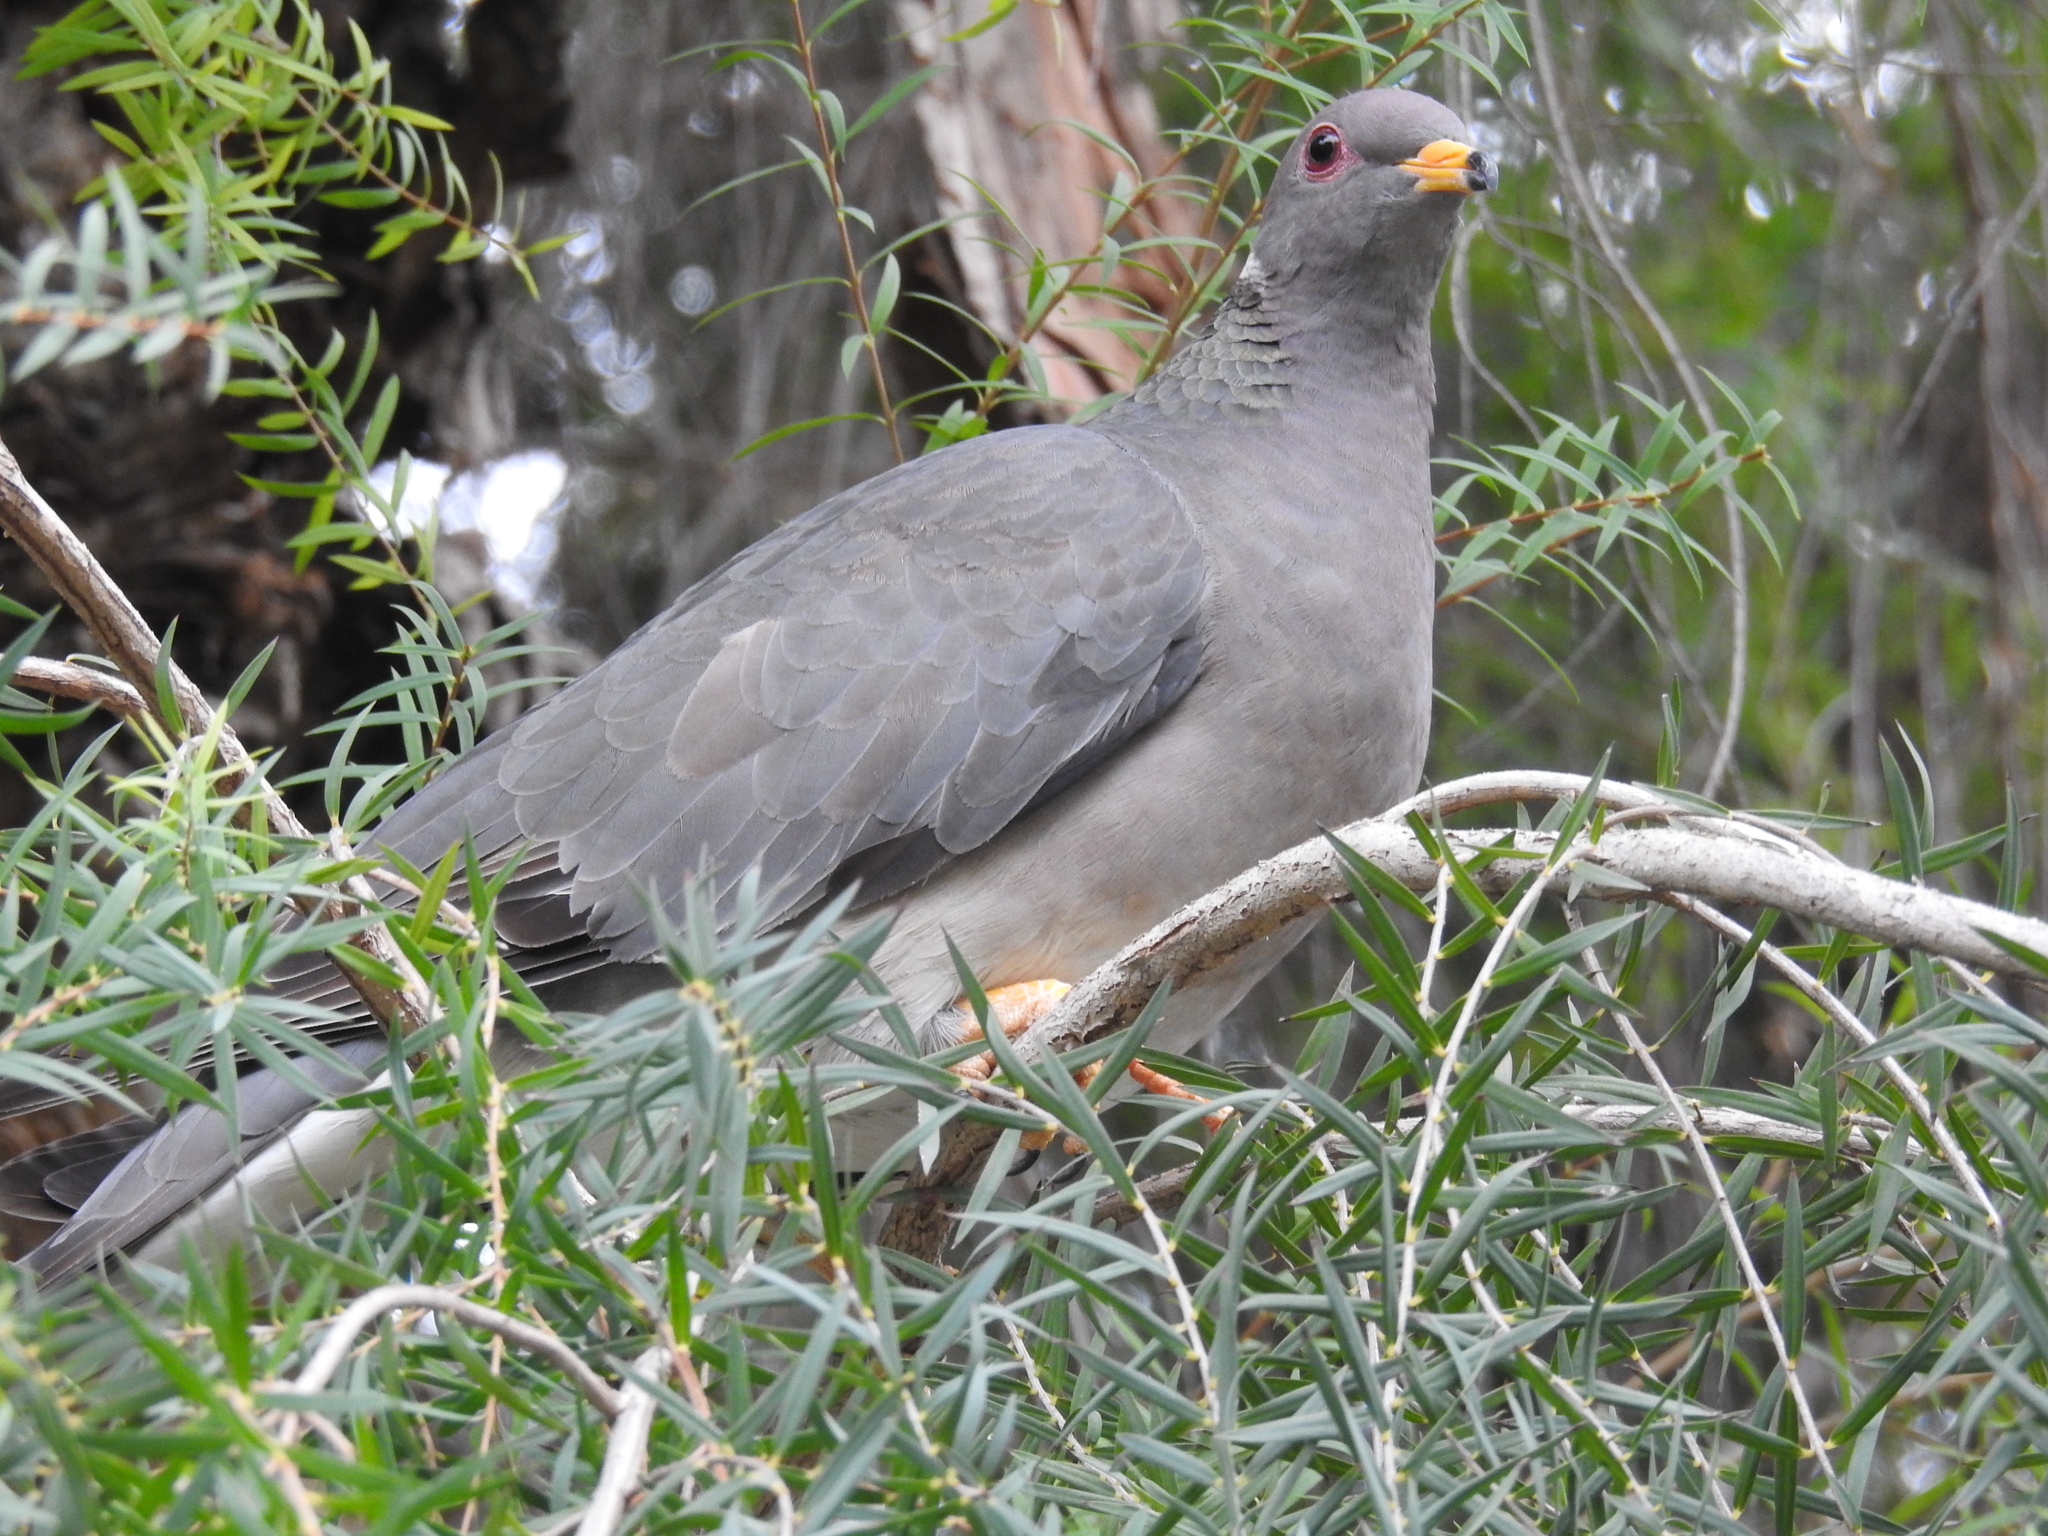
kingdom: Animalia
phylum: Chordata
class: Aves
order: Columbiformes
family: Columbidae
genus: Patagioenas
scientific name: Patagioenas fasciata
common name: Band-tailed pigeon
